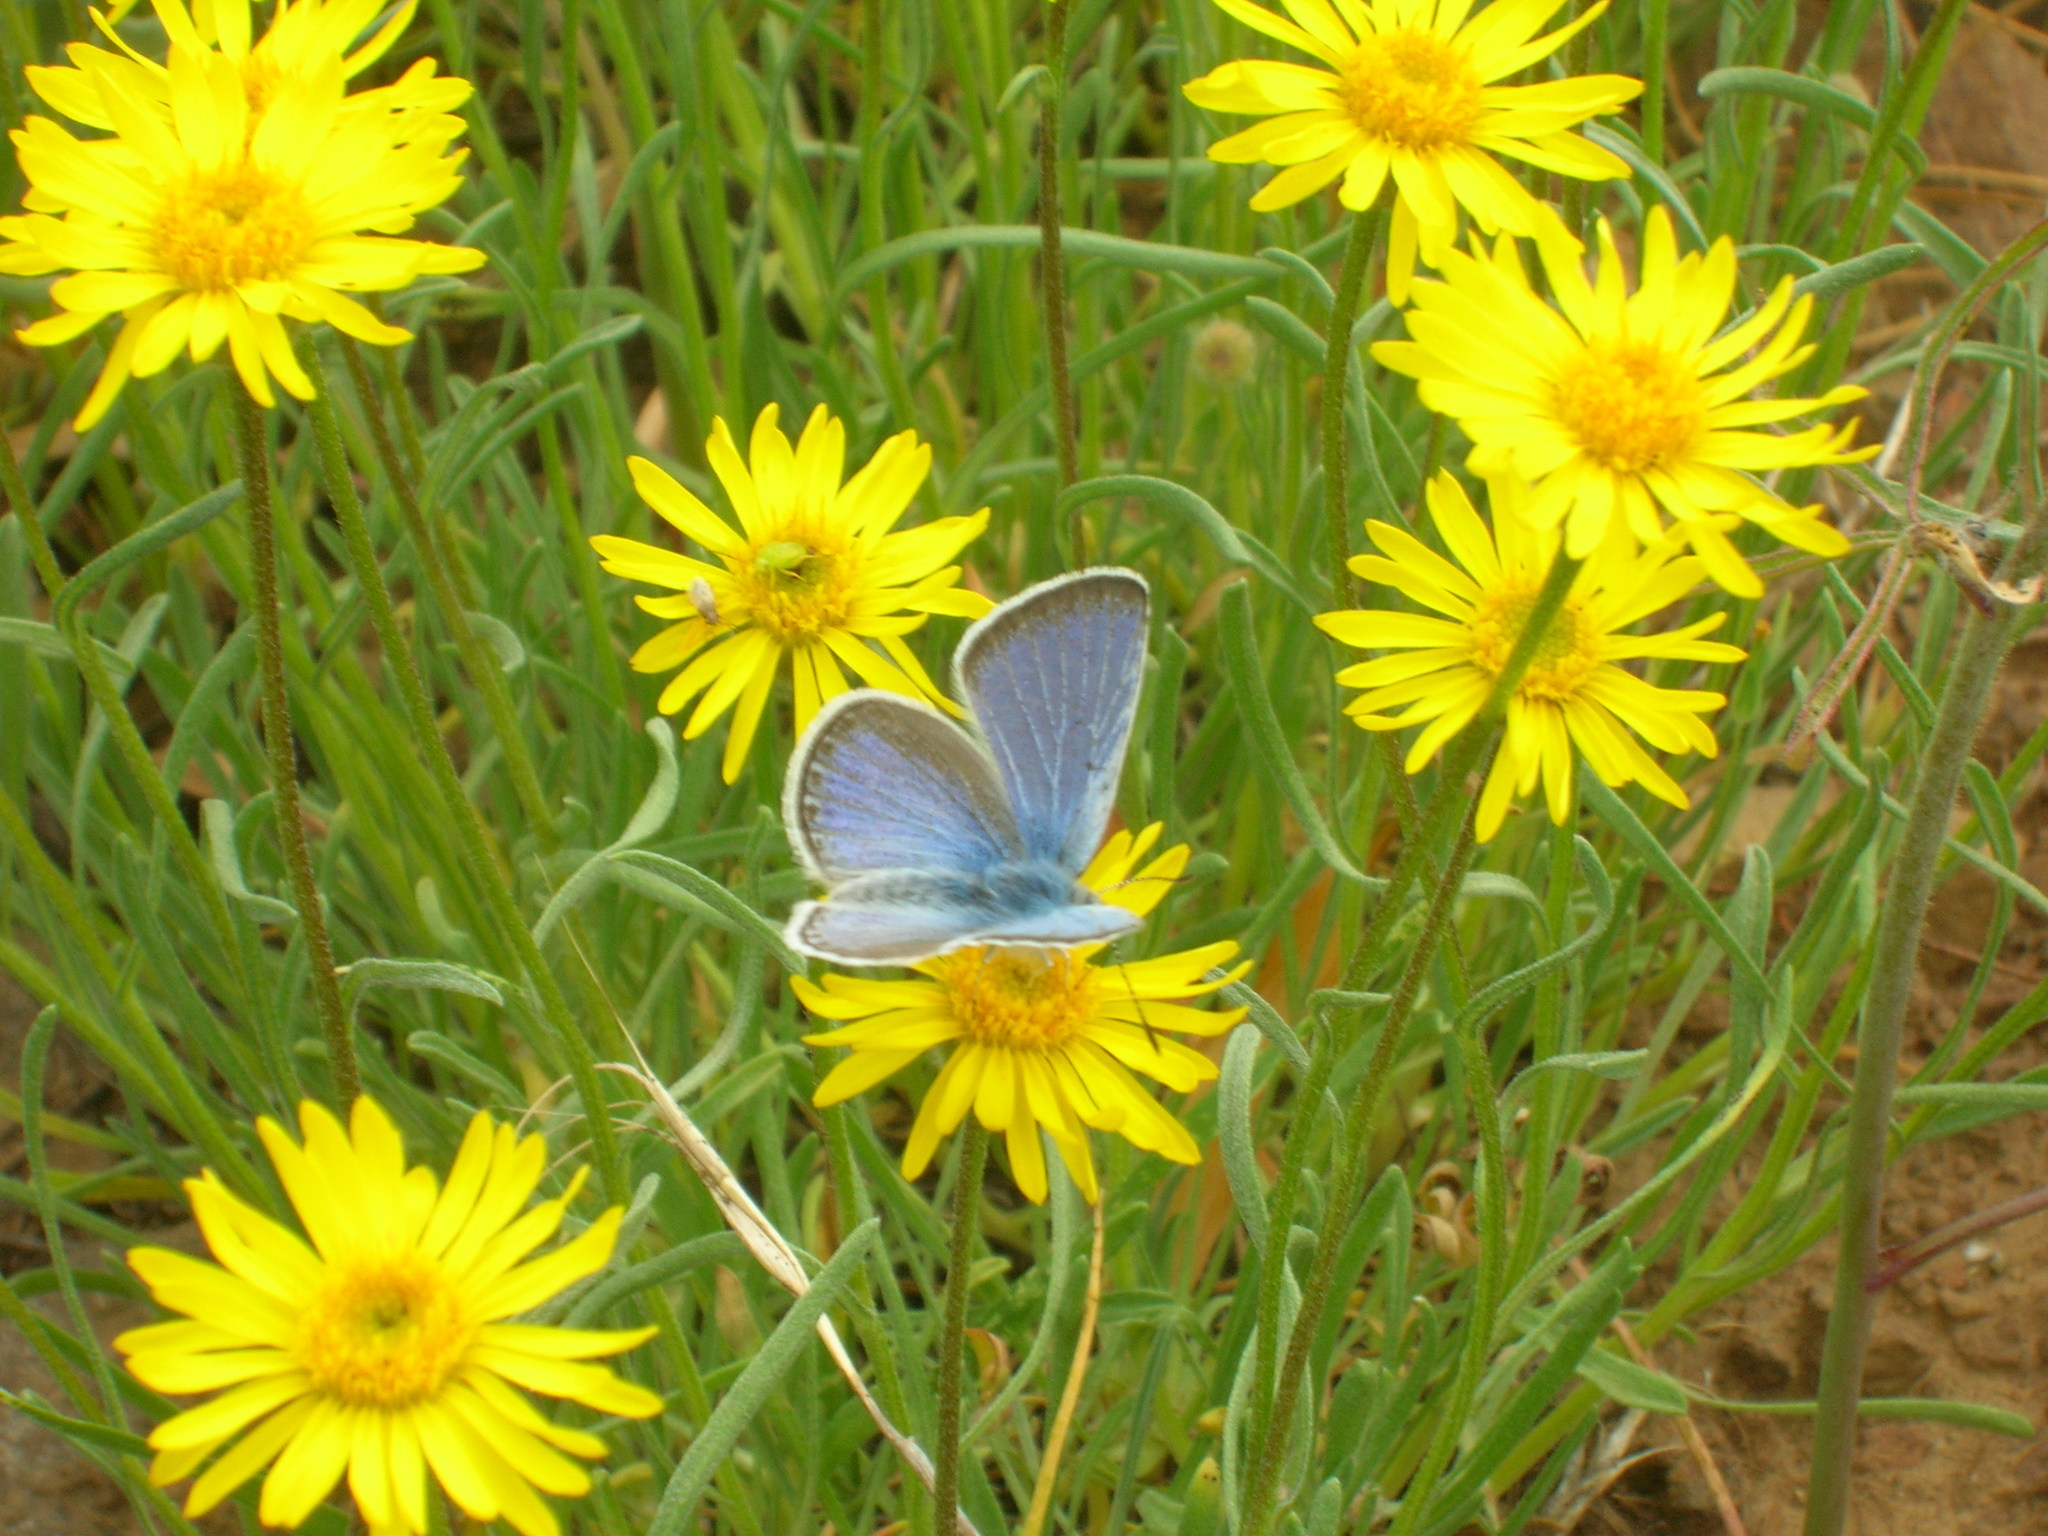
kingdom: Plantae
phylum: Tracheophyta
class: Magnoliopsida
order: Asterales
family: Asteraceae
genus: Erigeron
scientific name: Erigeron linearis
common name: Desert yellow fleabane
